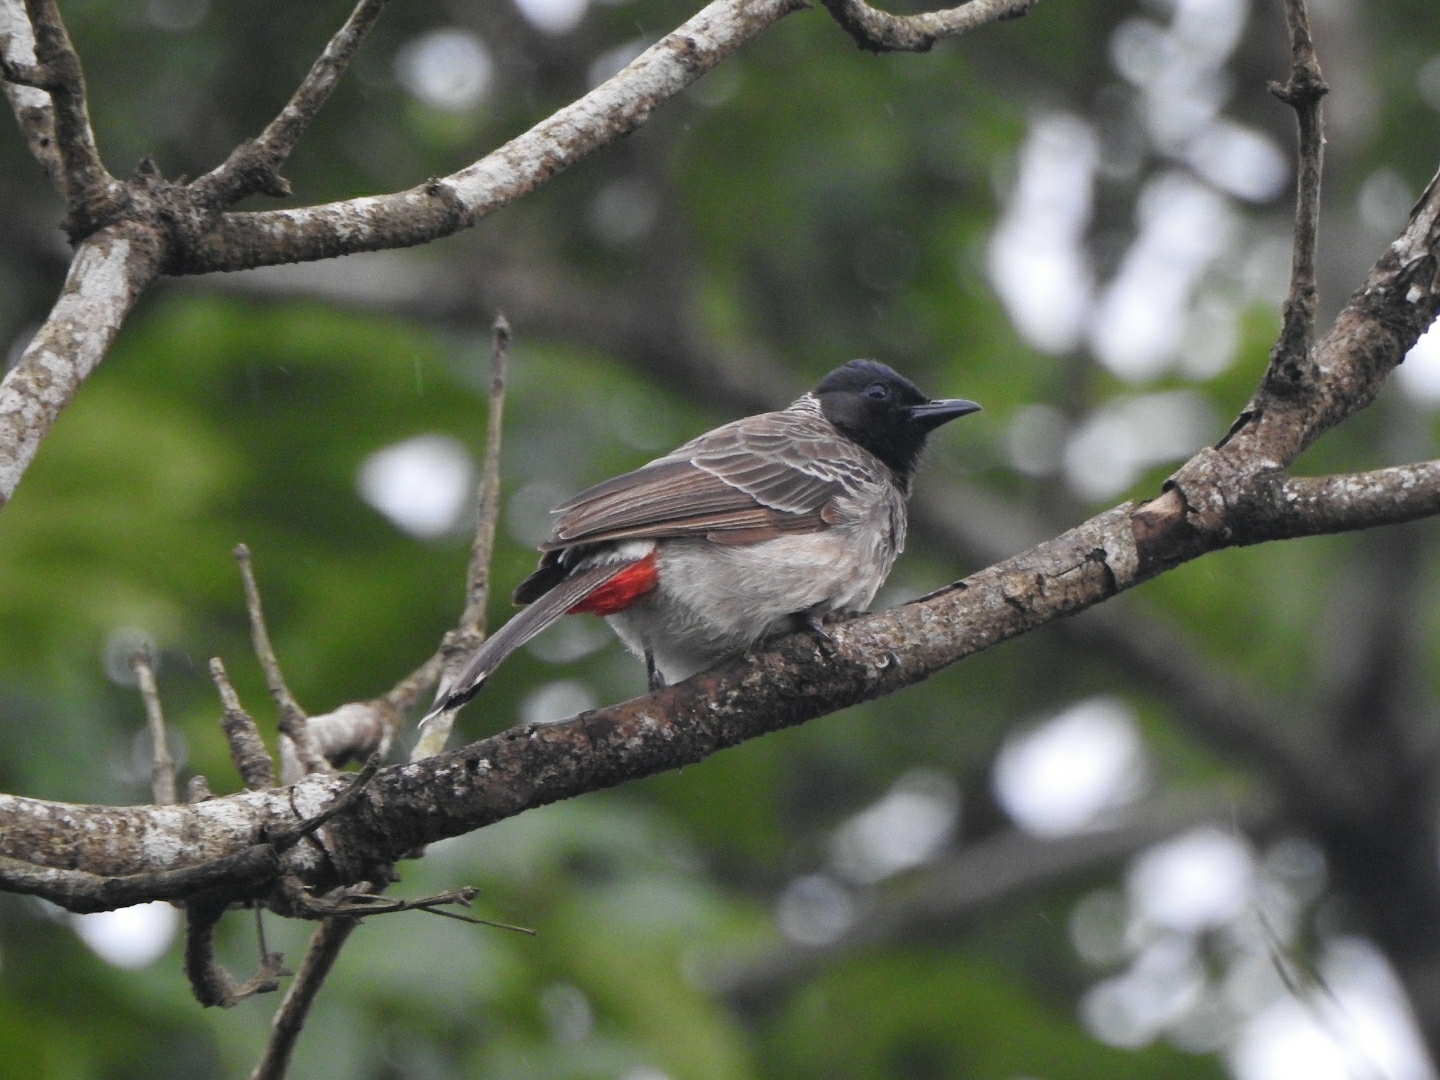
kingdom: Animalia
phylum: Chordata
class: Aves
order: Passeriformes
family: Pycnonotidae
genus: Pycnonotus
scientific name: Pycnonotus cafer
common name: Red-vented bulbul
